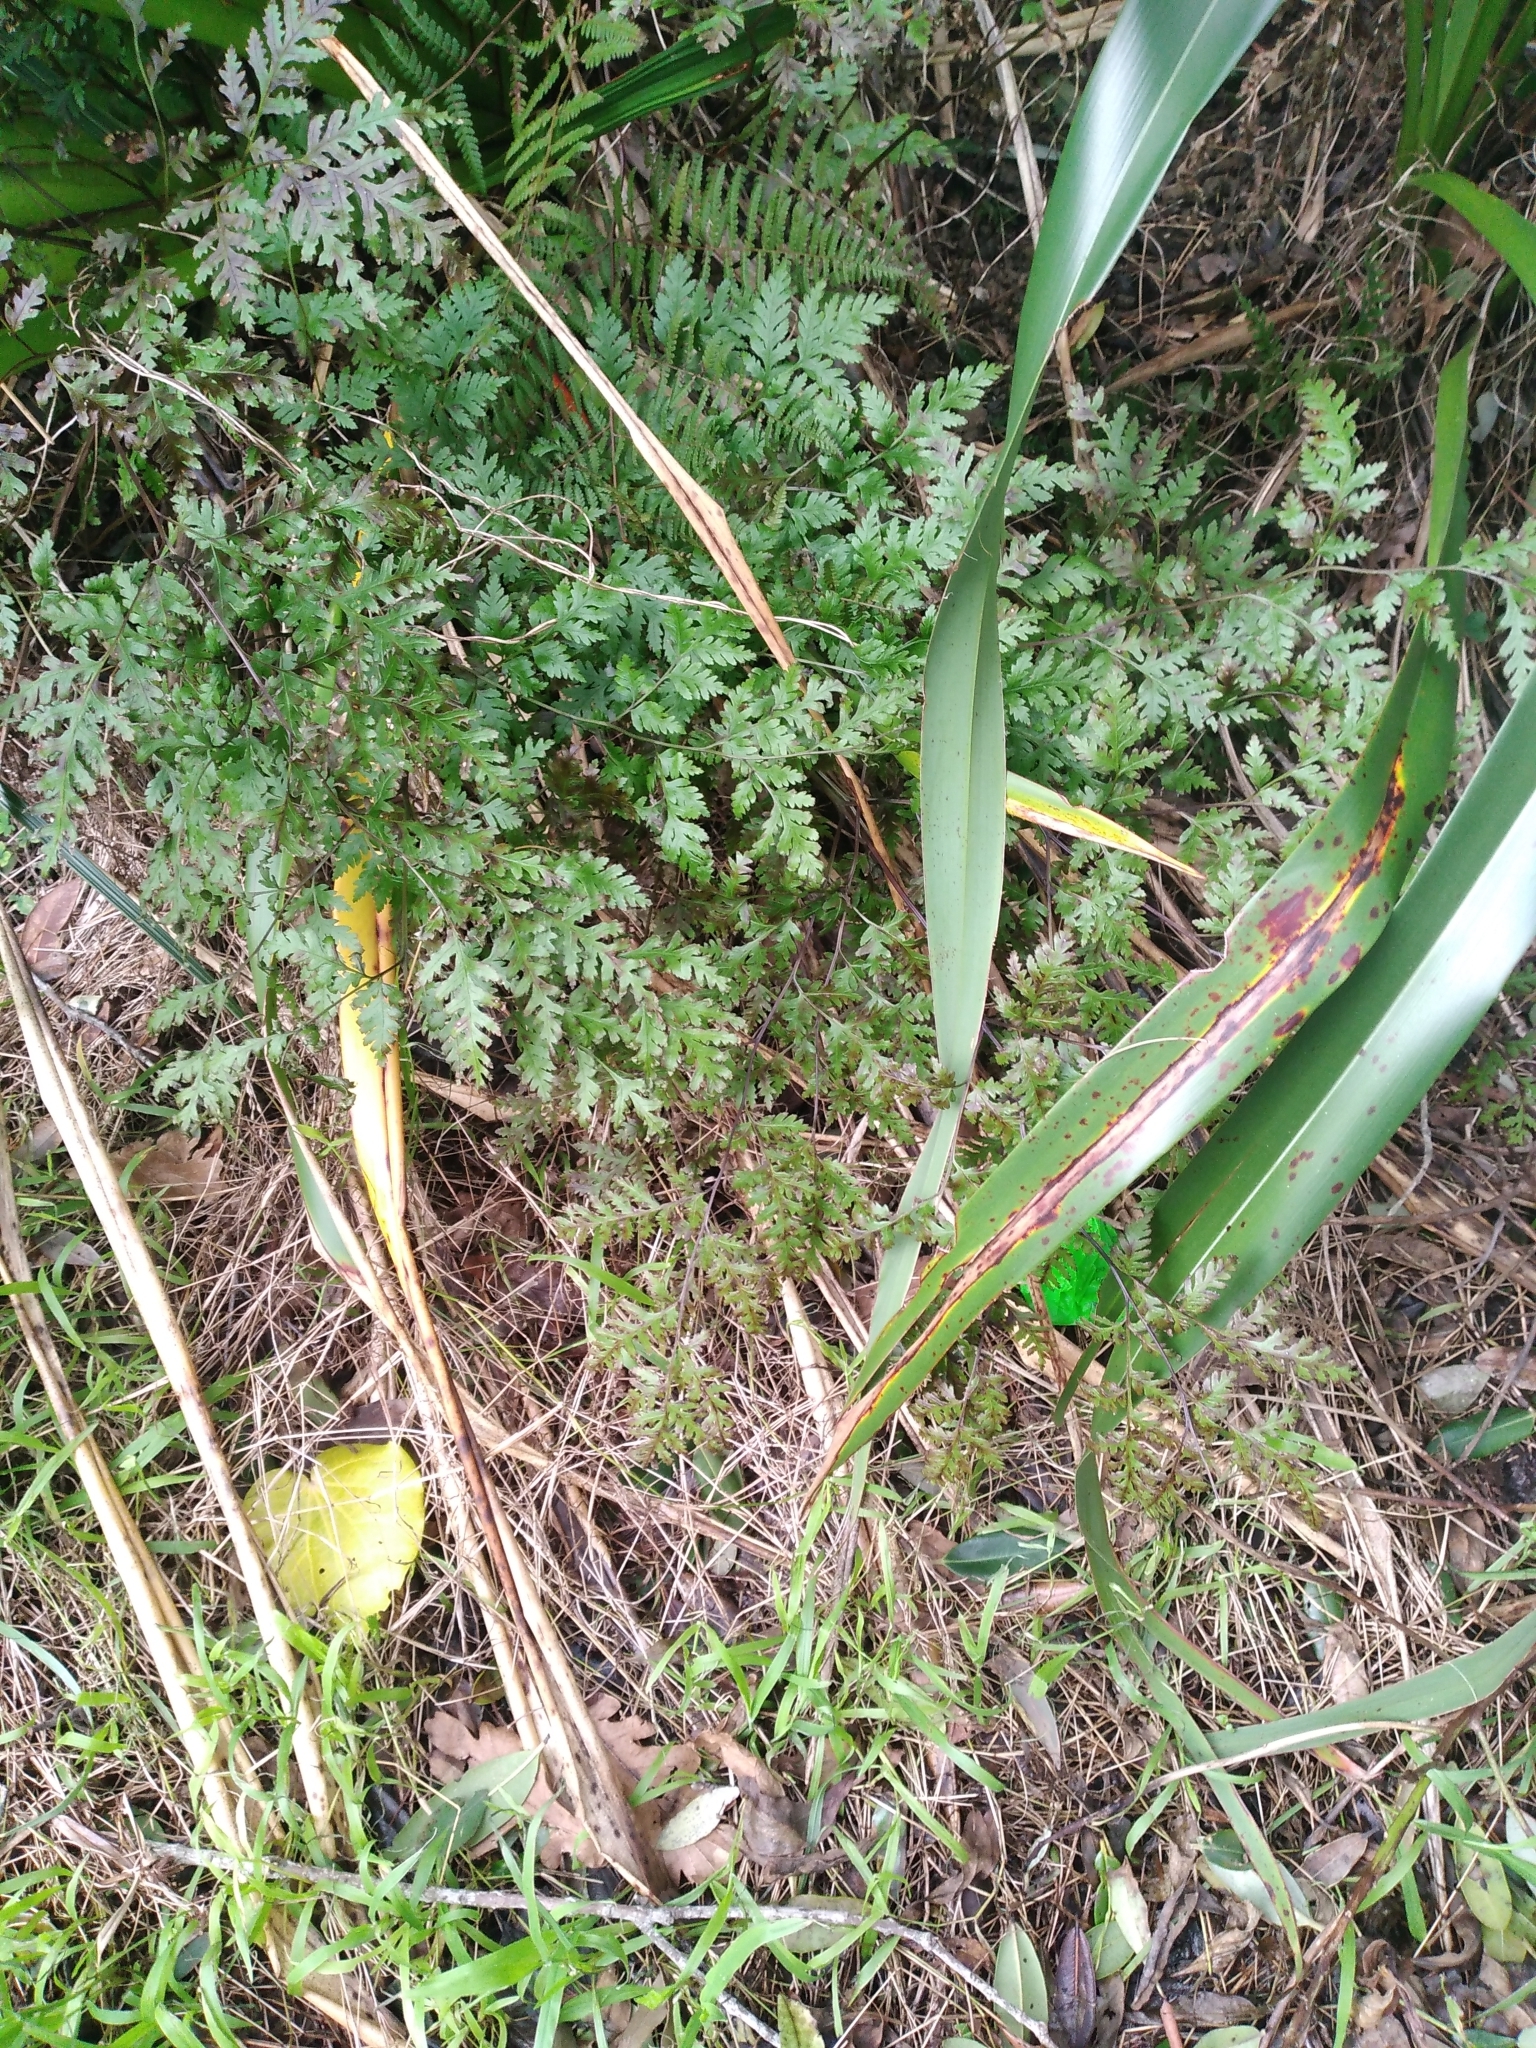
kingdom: Plantae
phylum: Tracheophyta
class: Polypodiopsida
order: Polypodiales
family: Pteridaceae
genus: Pteris
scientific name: Pteris macilenta
